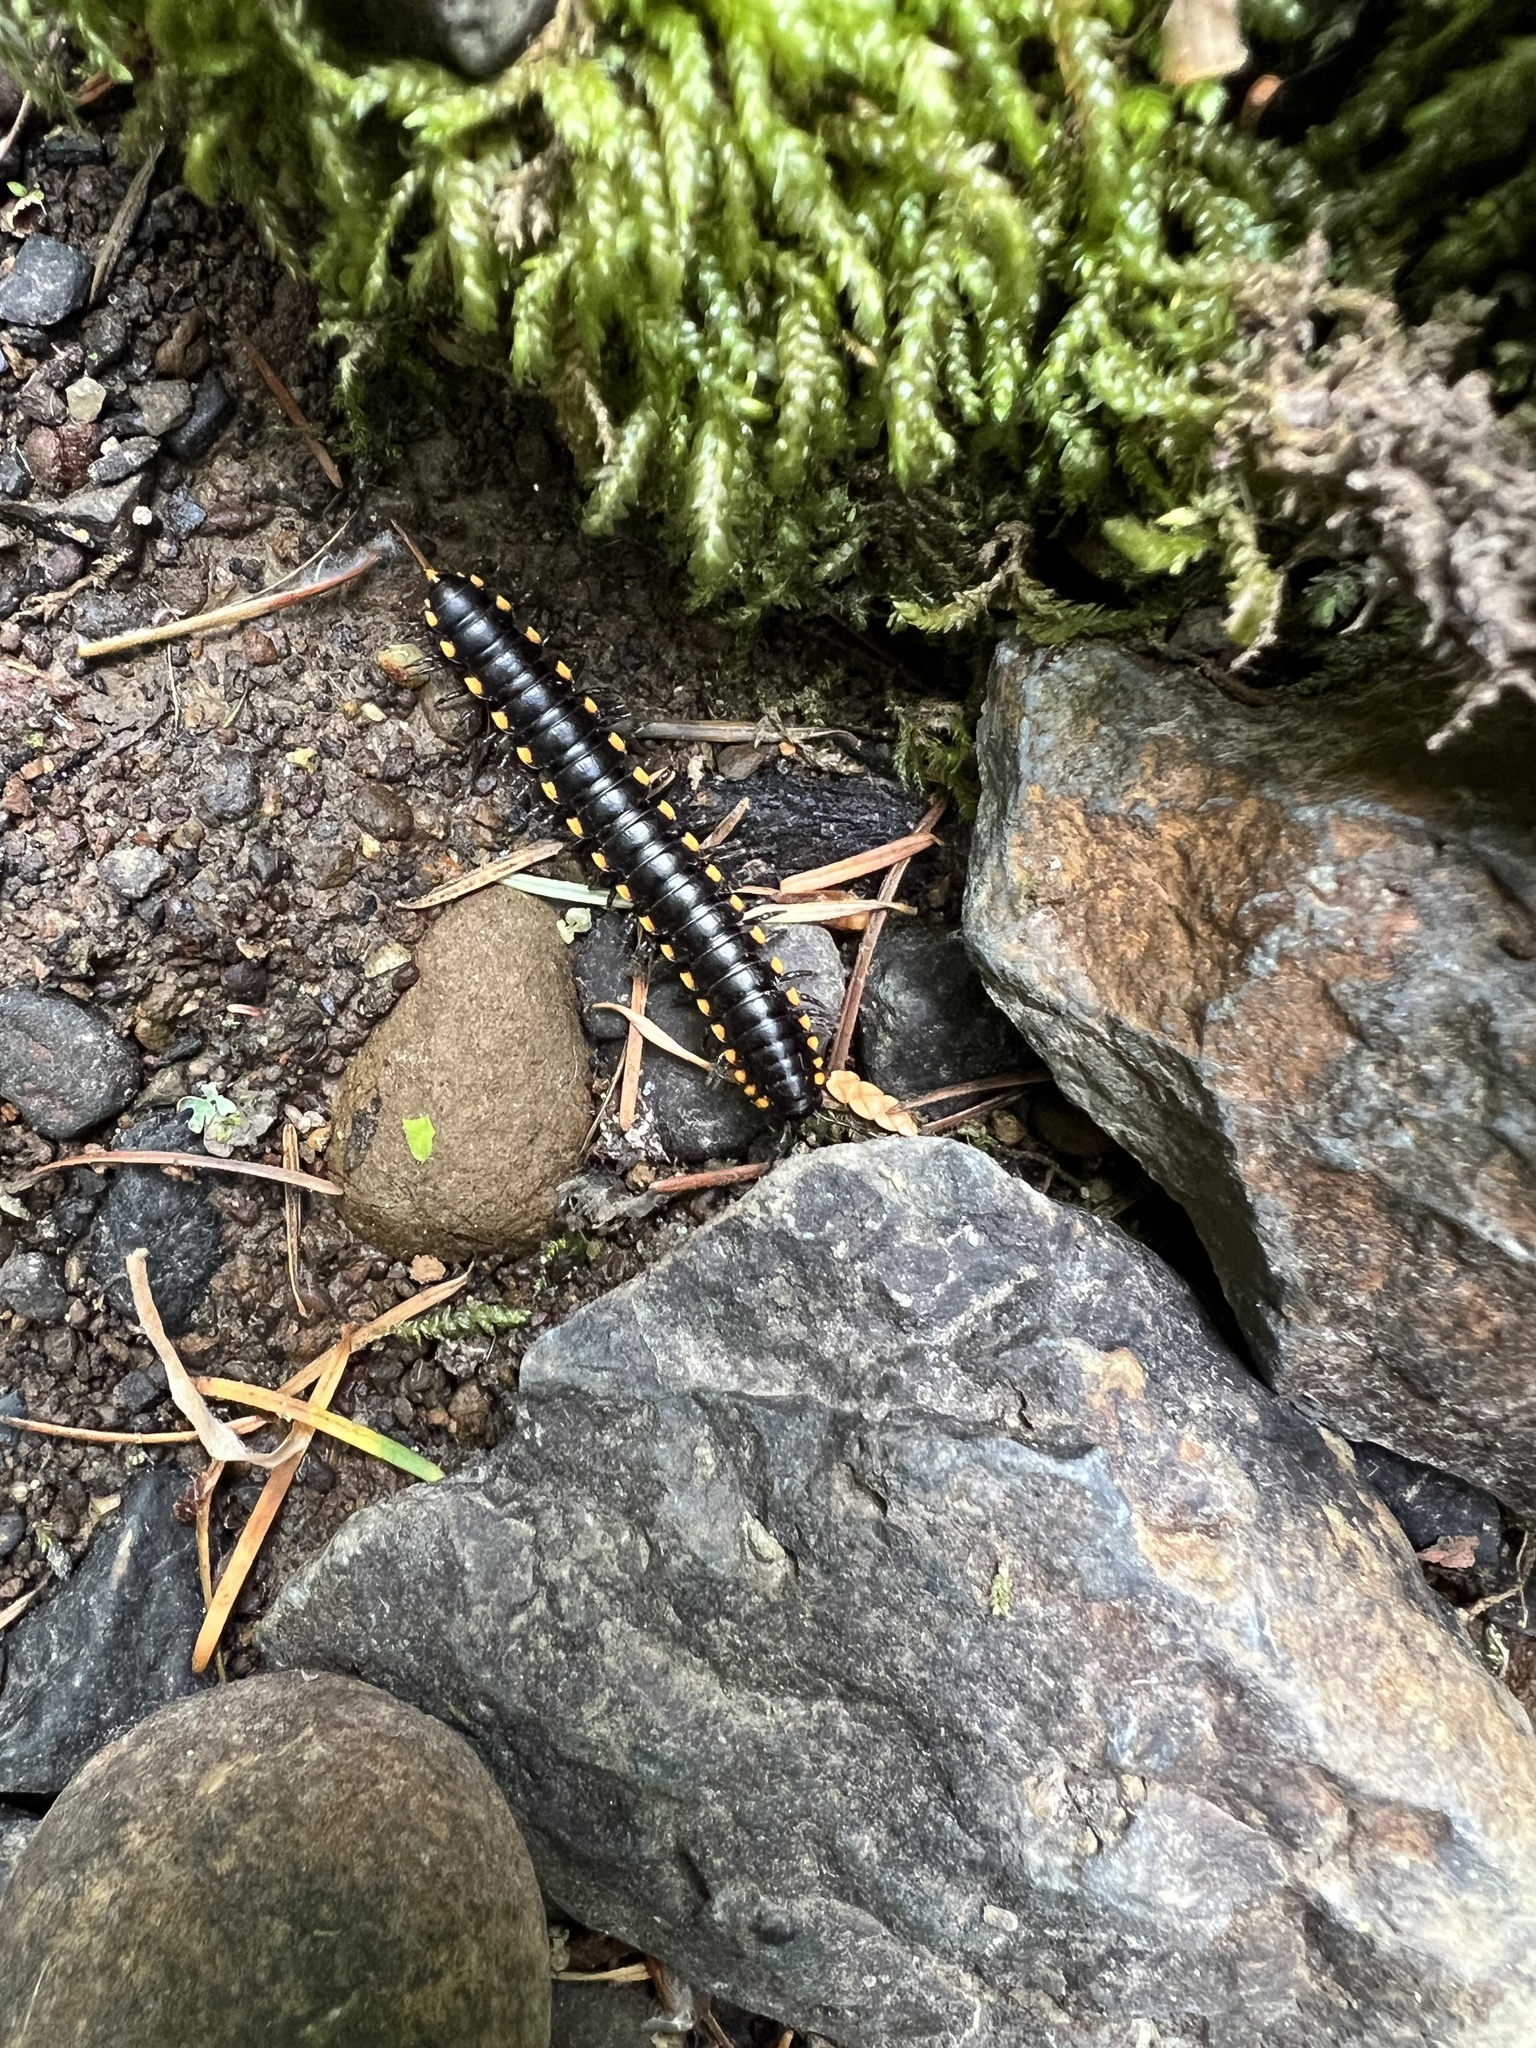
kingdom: Animalia
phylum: Arthropoda
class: Diplopoda
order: Polydesmida
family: Xystodesmidae
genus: Harpaphe
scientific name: Harpaphe haydeniana
